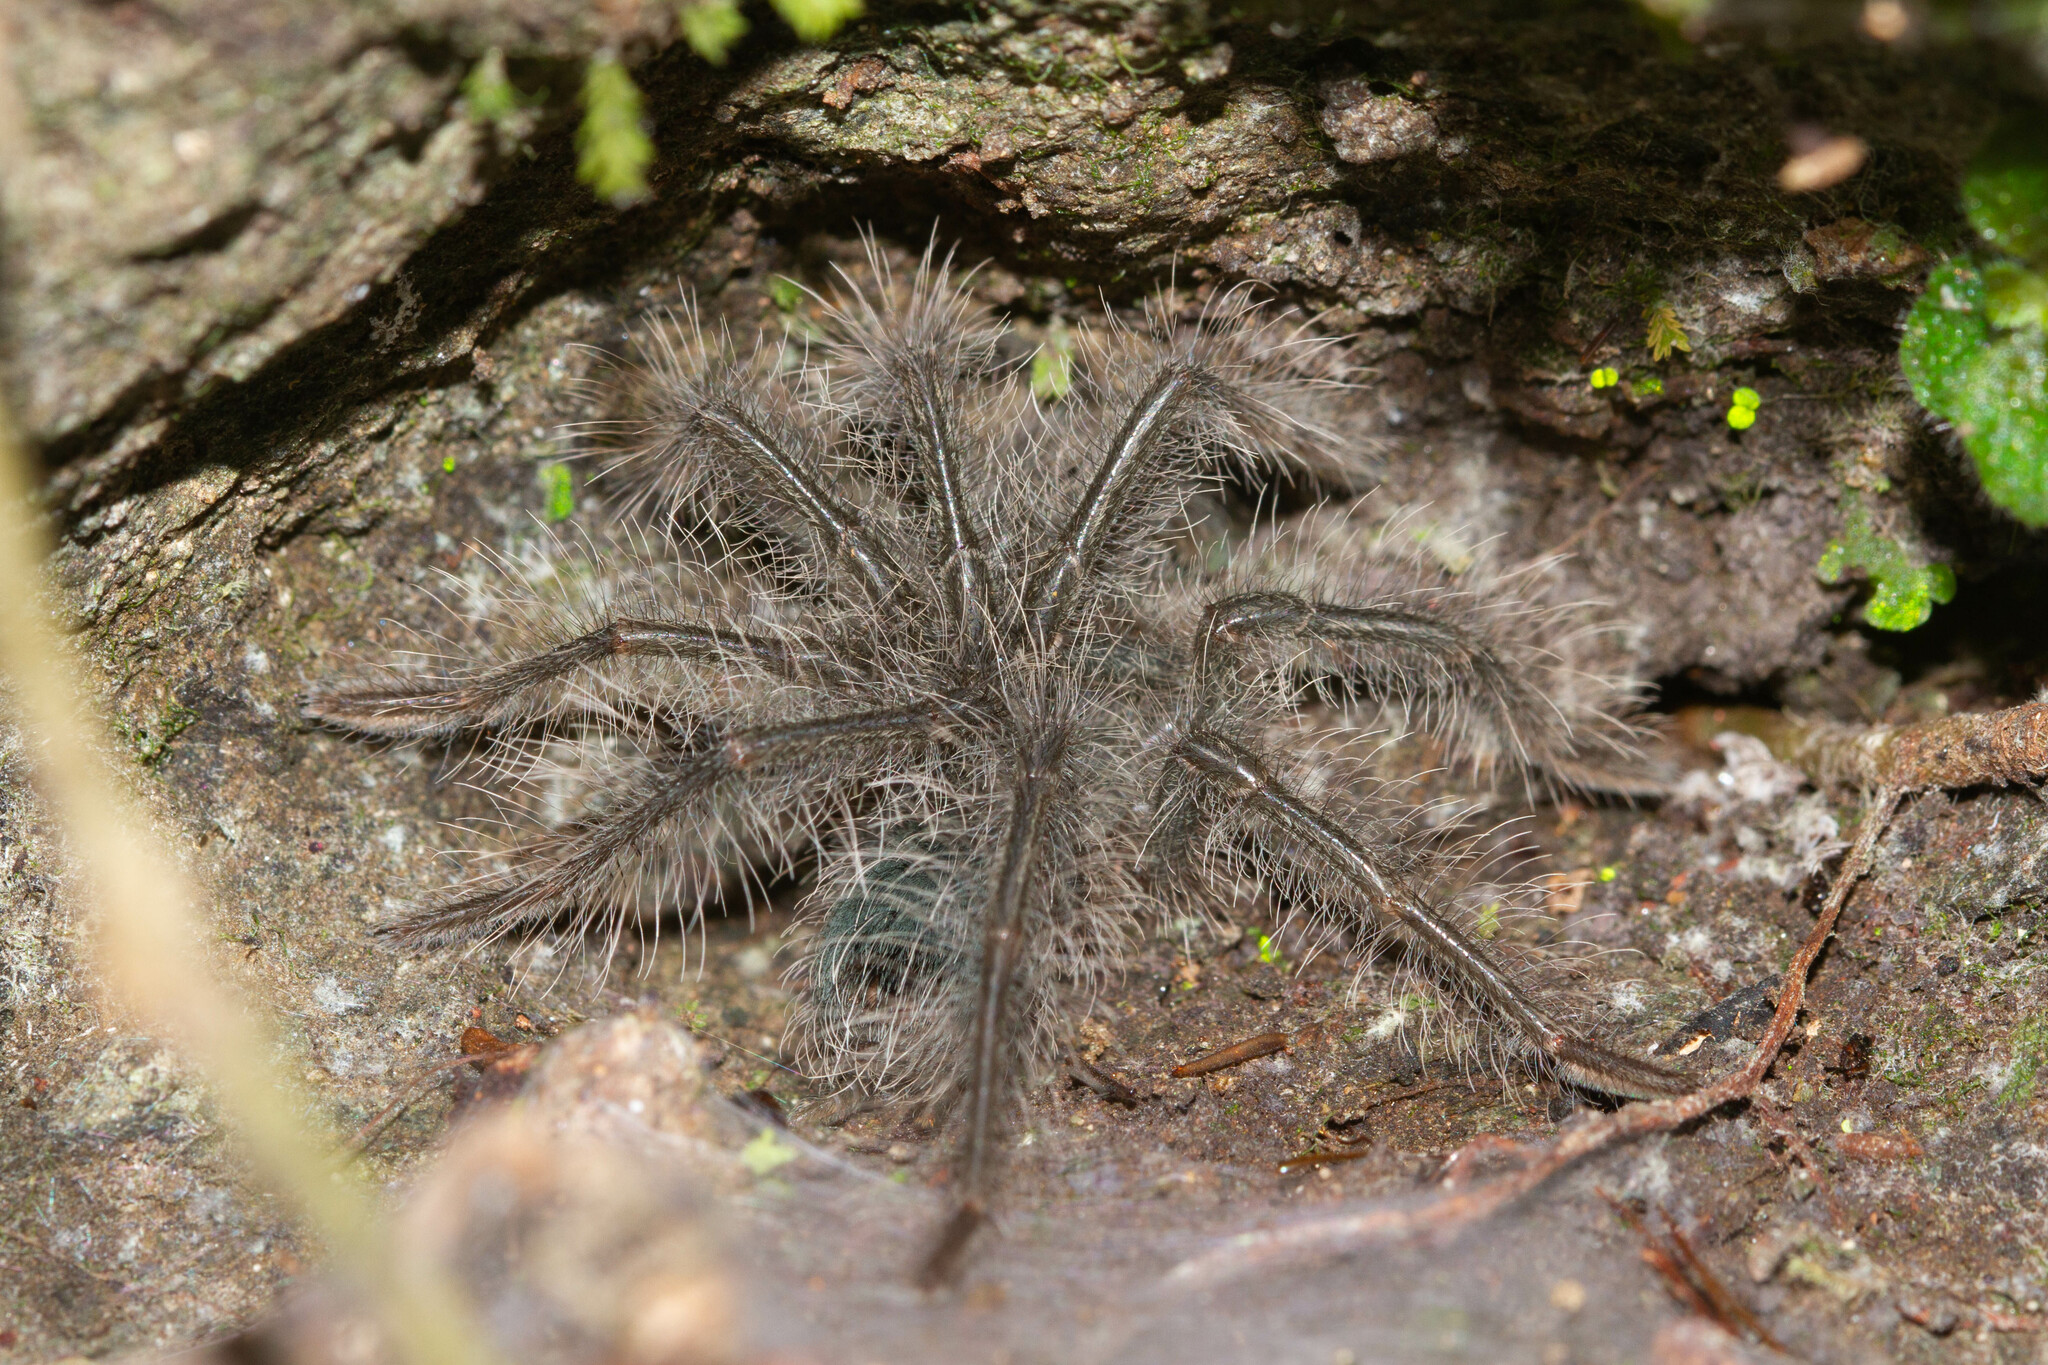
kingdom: Animalia
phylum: Arthropoda
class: Arachnida
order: Araneae
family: Theraphosidae
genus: Theraphosa
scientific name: Theraphosa blondi
